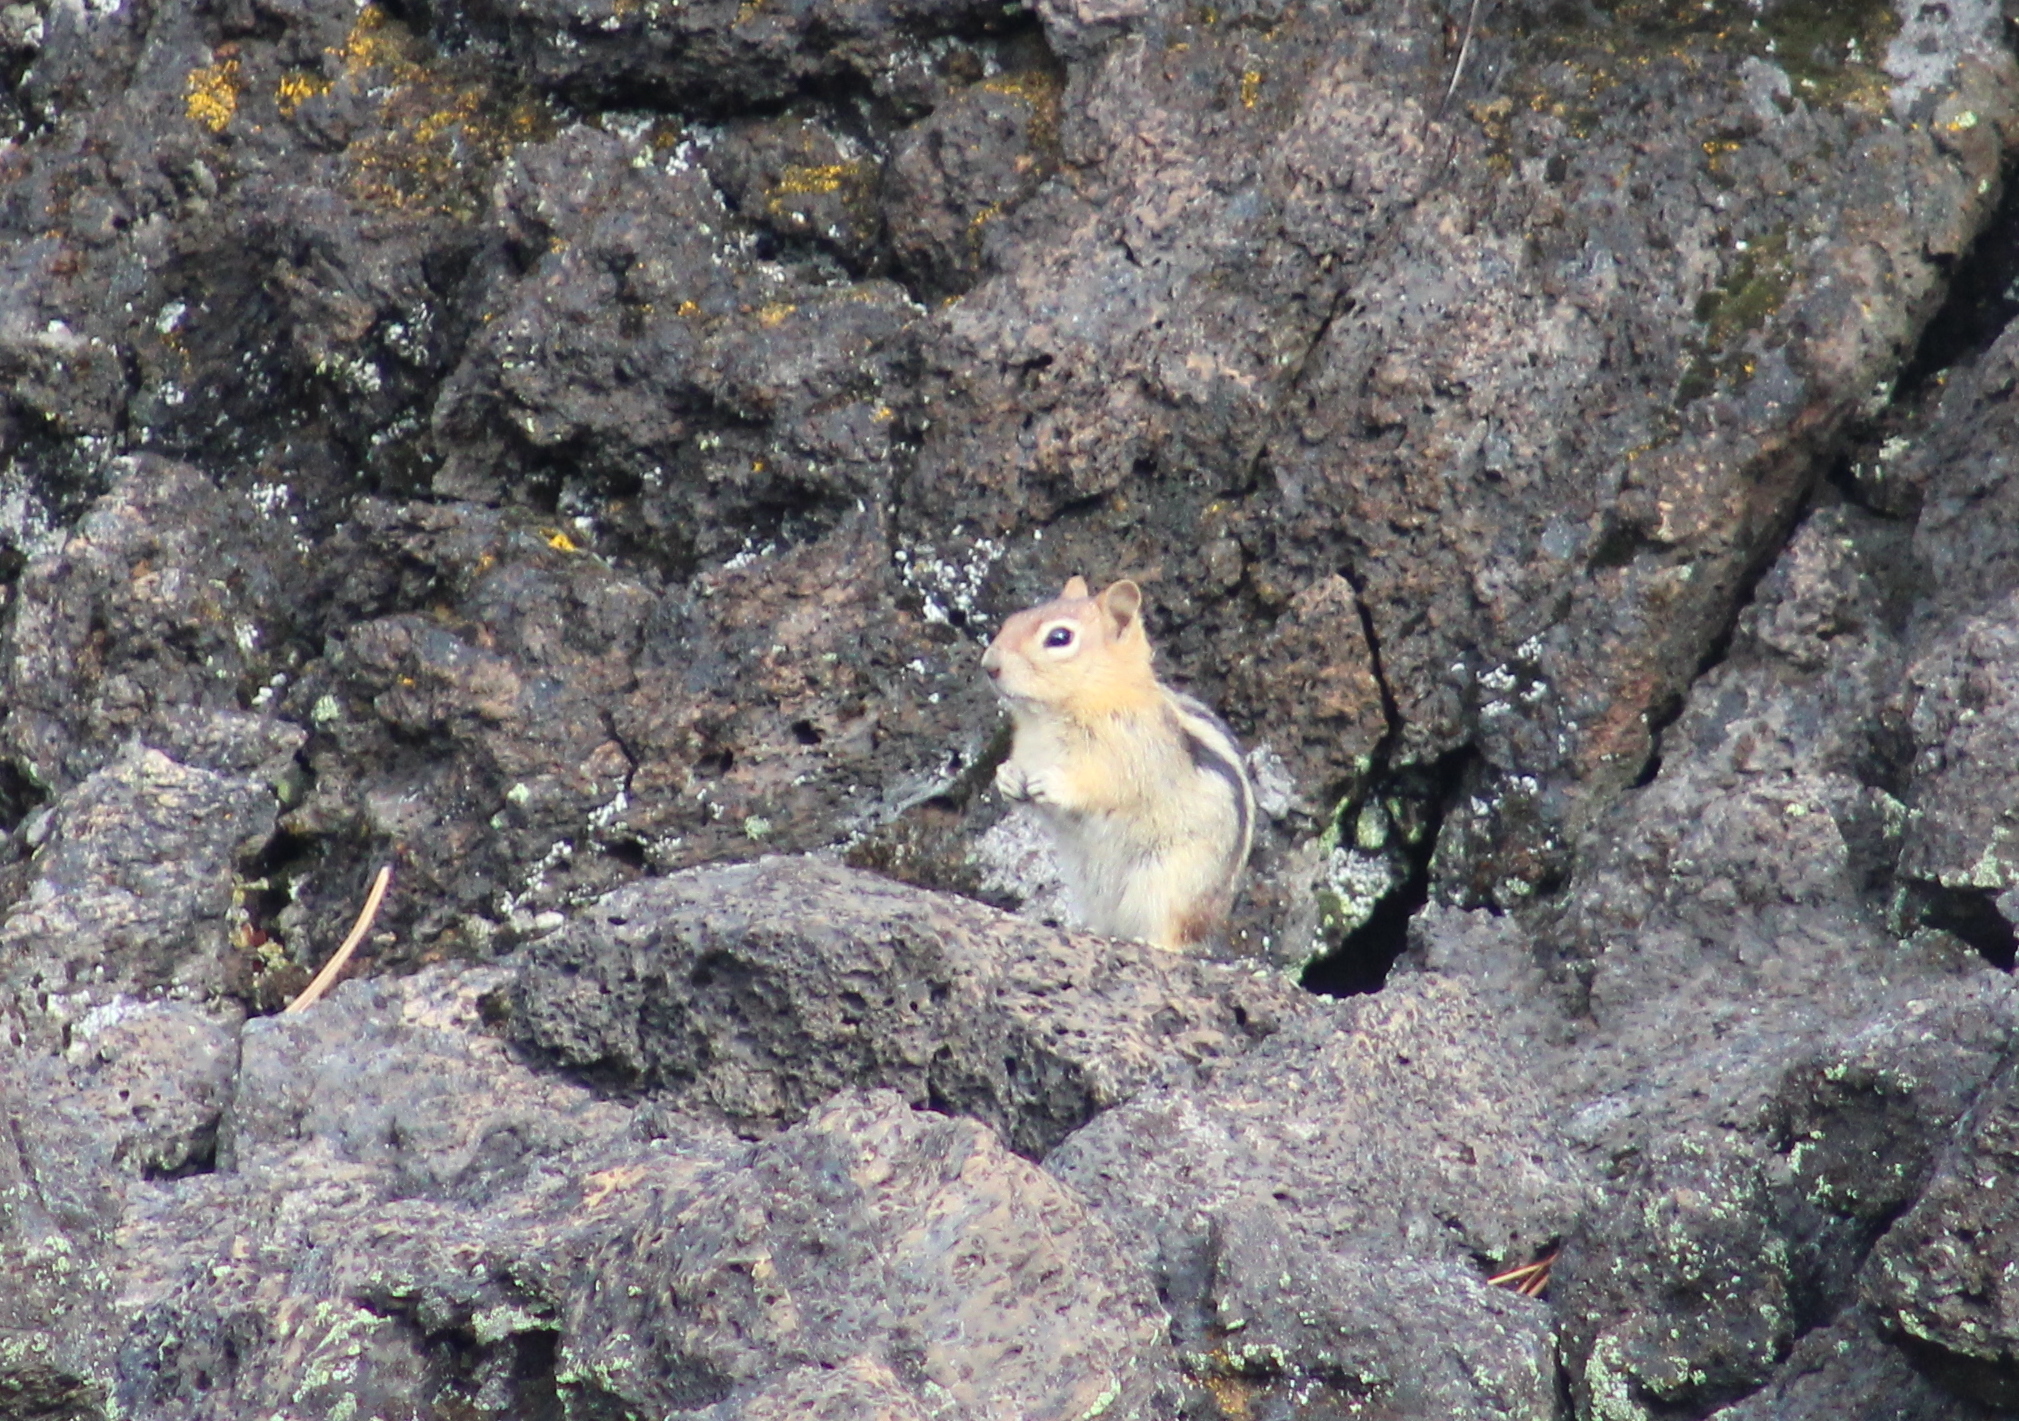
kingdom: Animalia
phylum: Chordata
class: Mammalia
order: Rodentia
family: Sciuridae
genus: Callospermophilus
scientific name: Callospermophilus lateralis
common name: Golden-mantled ground squirrel
